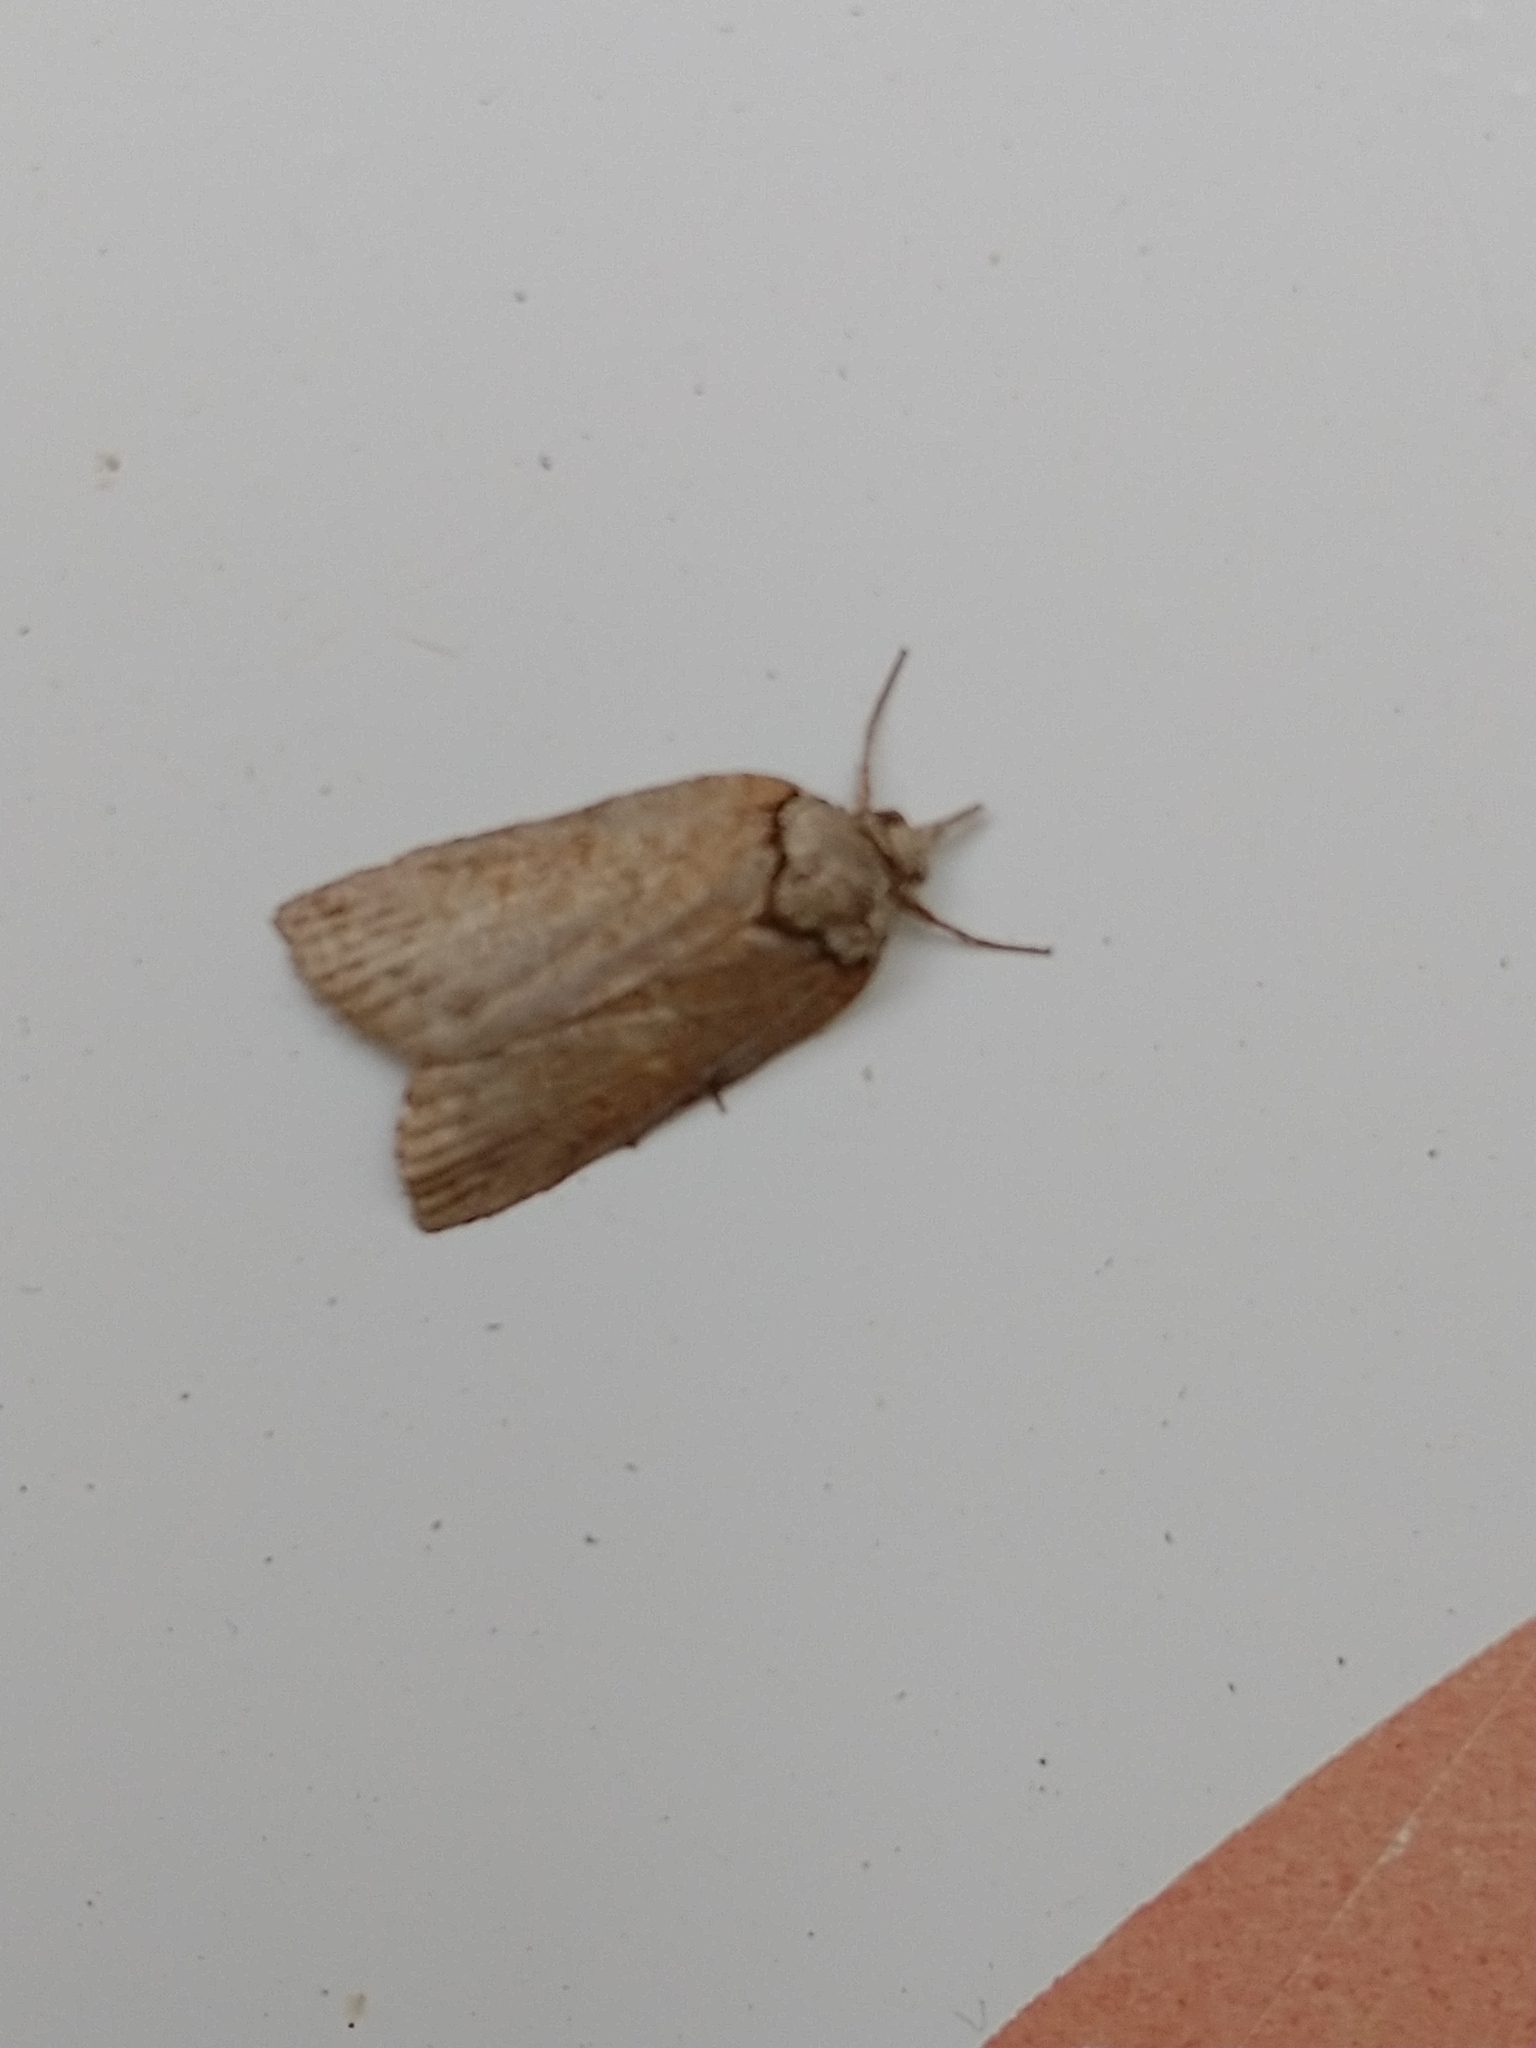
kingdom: Animalia
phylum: Arthropoda
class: Insecta
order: Lepidoptera
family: Nolidae
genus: Nycteola
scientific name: Nycteola revayana
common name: Oak nycteoline
